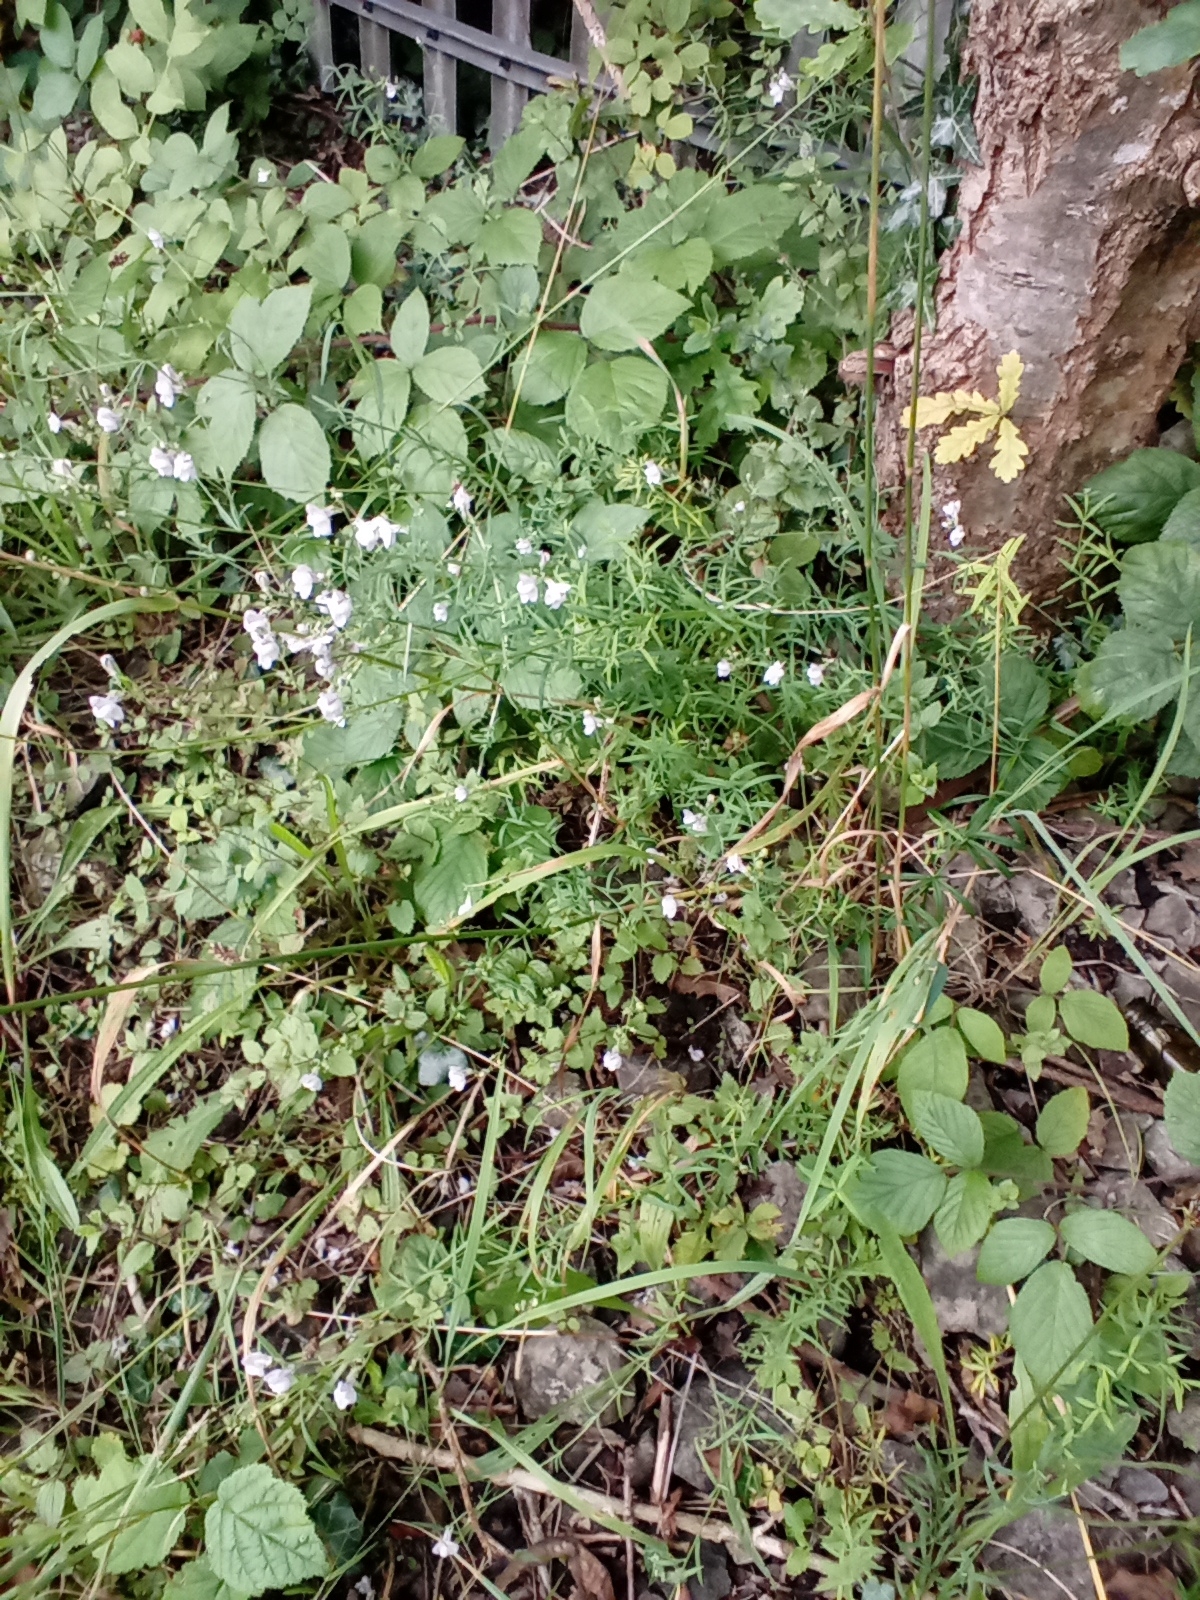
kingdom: Plantae
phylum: Tracheophyta
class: Magnoliopsida
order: Lamiales
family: Plantaginaceae
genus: Linaria
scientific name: Linaria repens
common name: Pale toadflax
